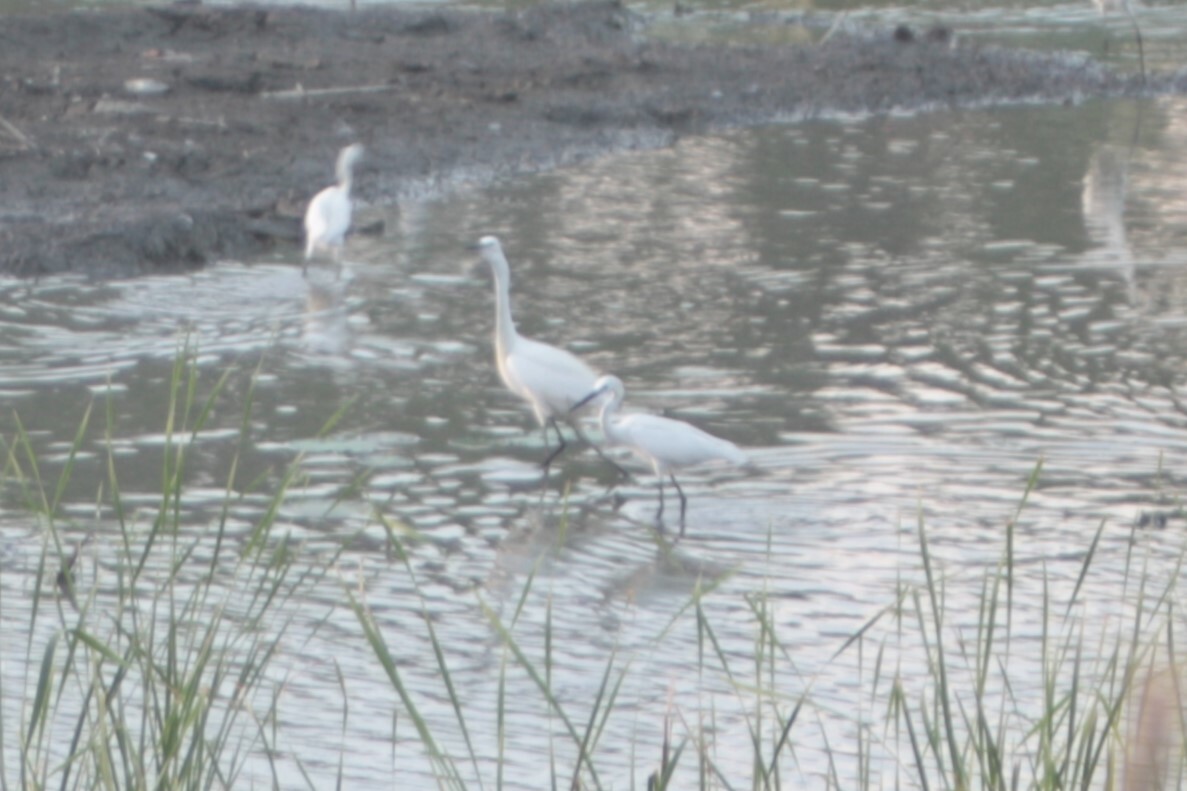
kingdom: Animalia
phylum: Chordata
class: Aves
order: Pelecaniformes
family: Ardeidae
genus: Egretta
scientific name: Egretta garzetta
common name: Little egret
